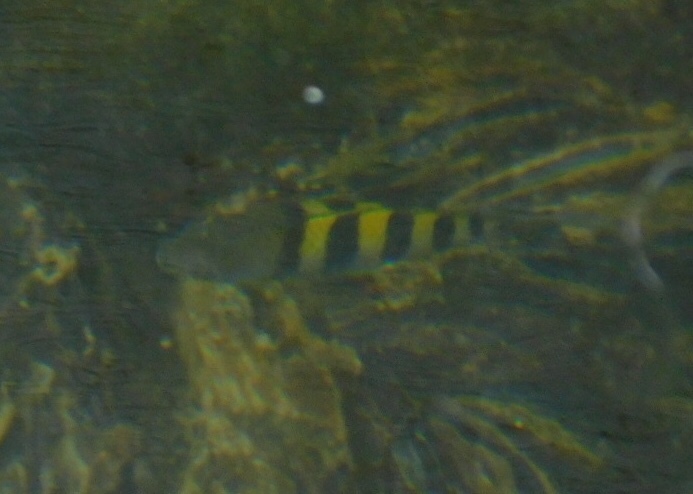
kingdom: Animalia
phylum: Chordata
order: Perciformes
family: Pomacentridae
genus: Abudefduf
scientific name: Abudefduf saxatilis
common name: Sergeant major
